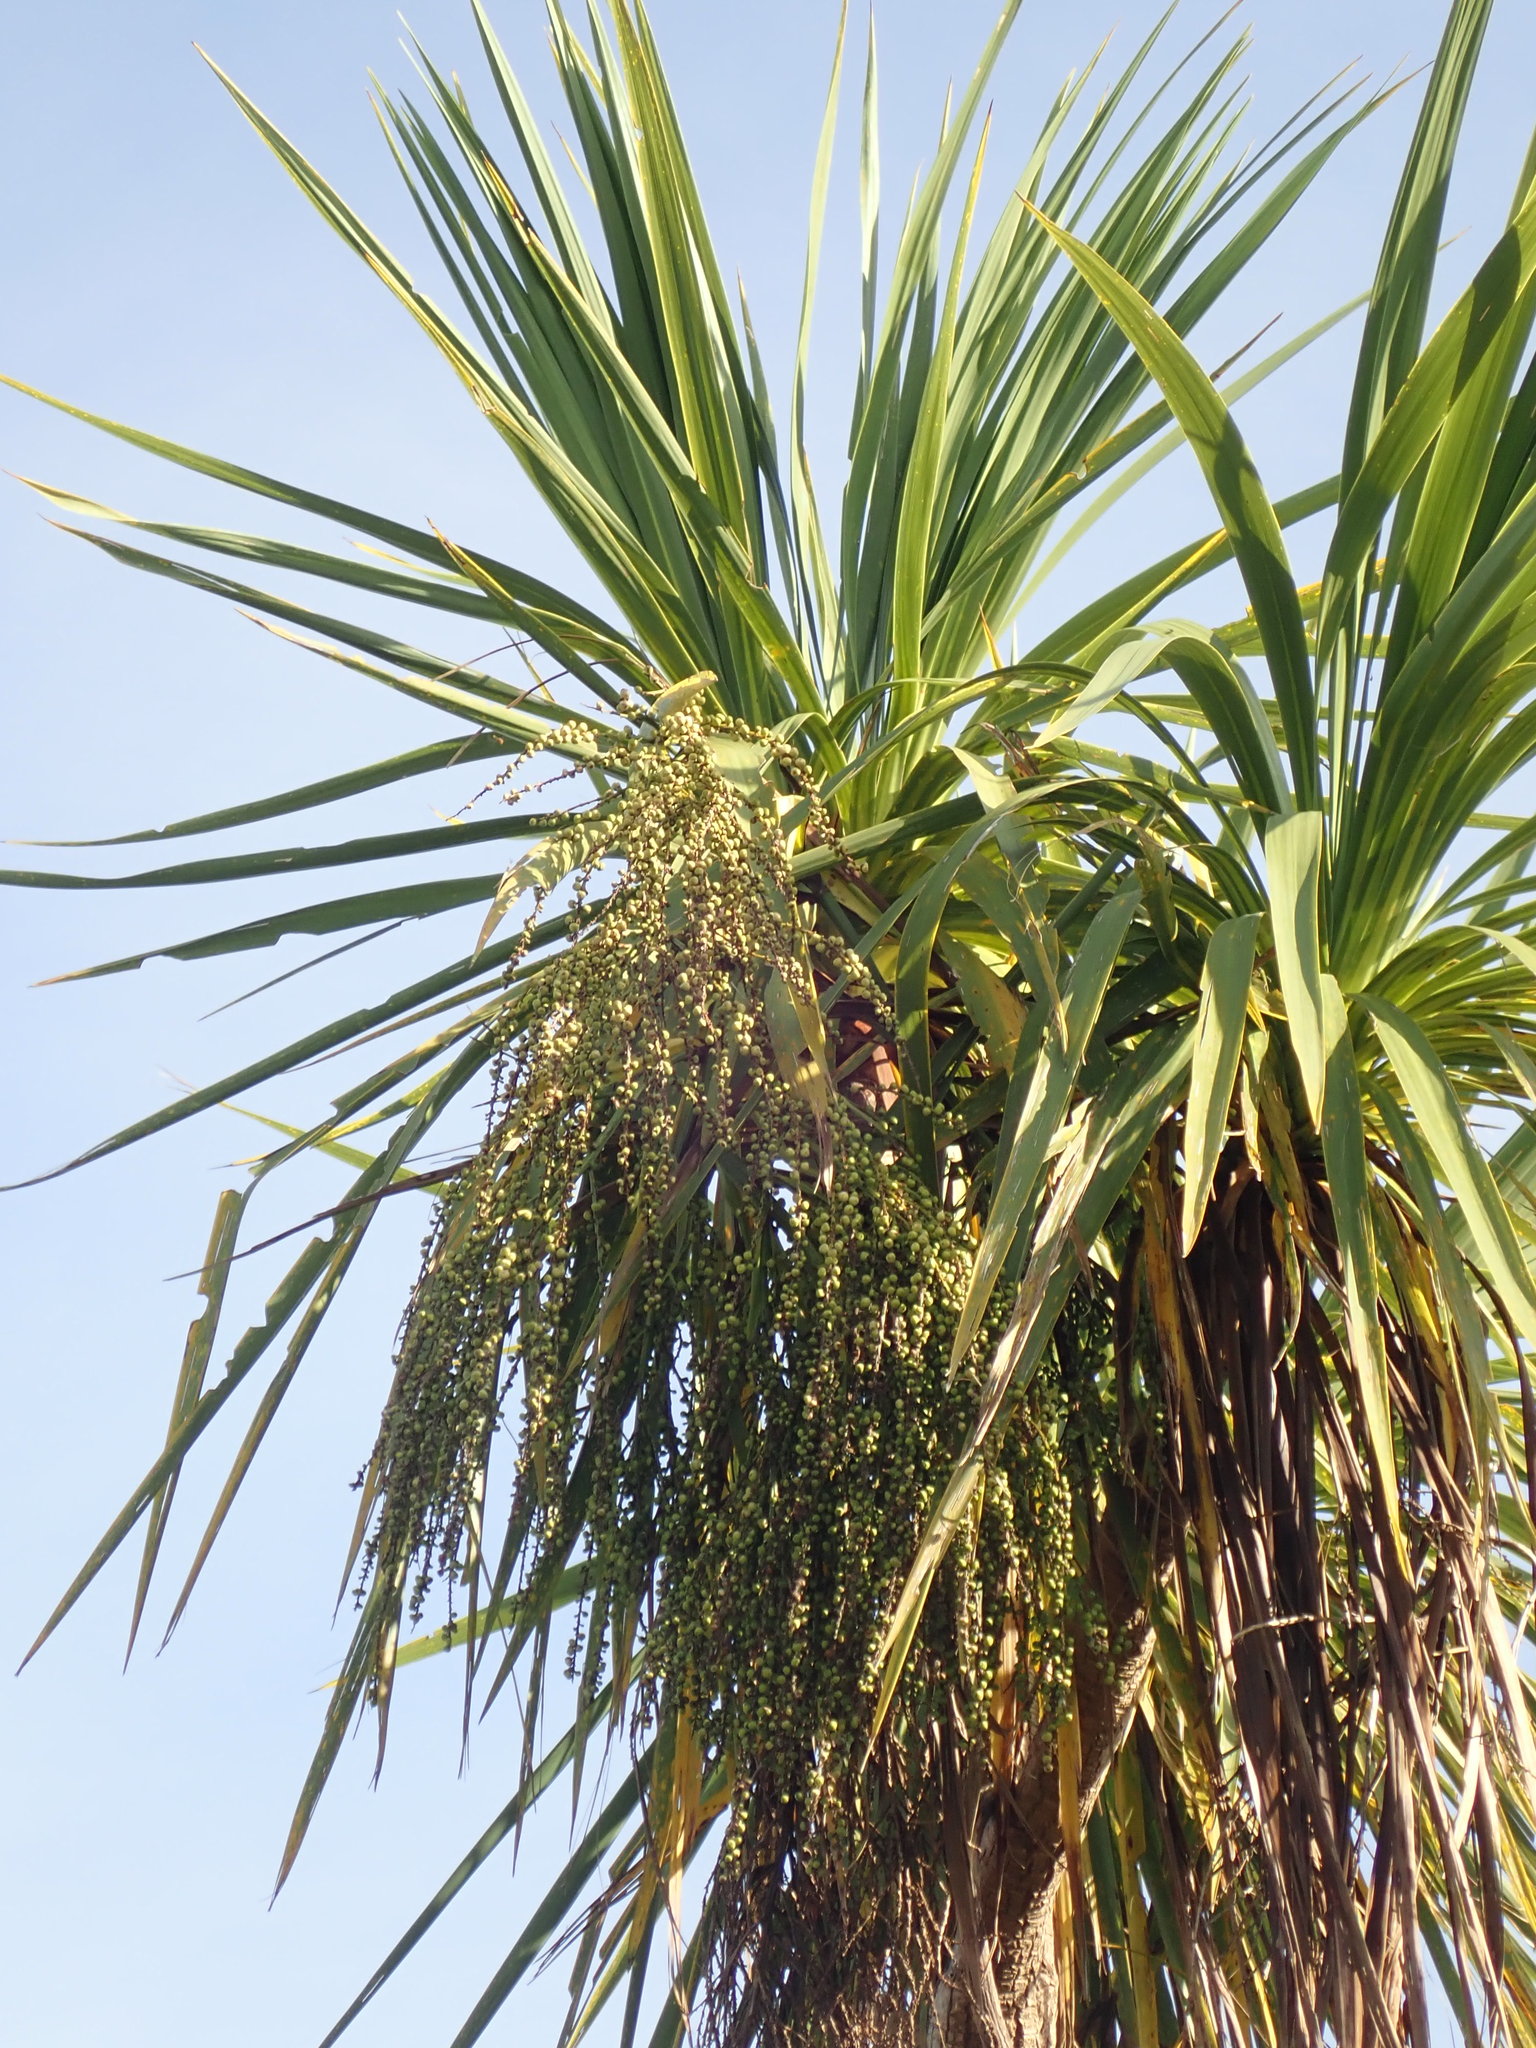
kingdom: Plantae
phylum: Tracheophyta
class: Liliopsida
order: Asparagales
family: Asparagaceae
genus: Cordyline
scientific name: Cordyline australis
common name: Cabbage-palm
